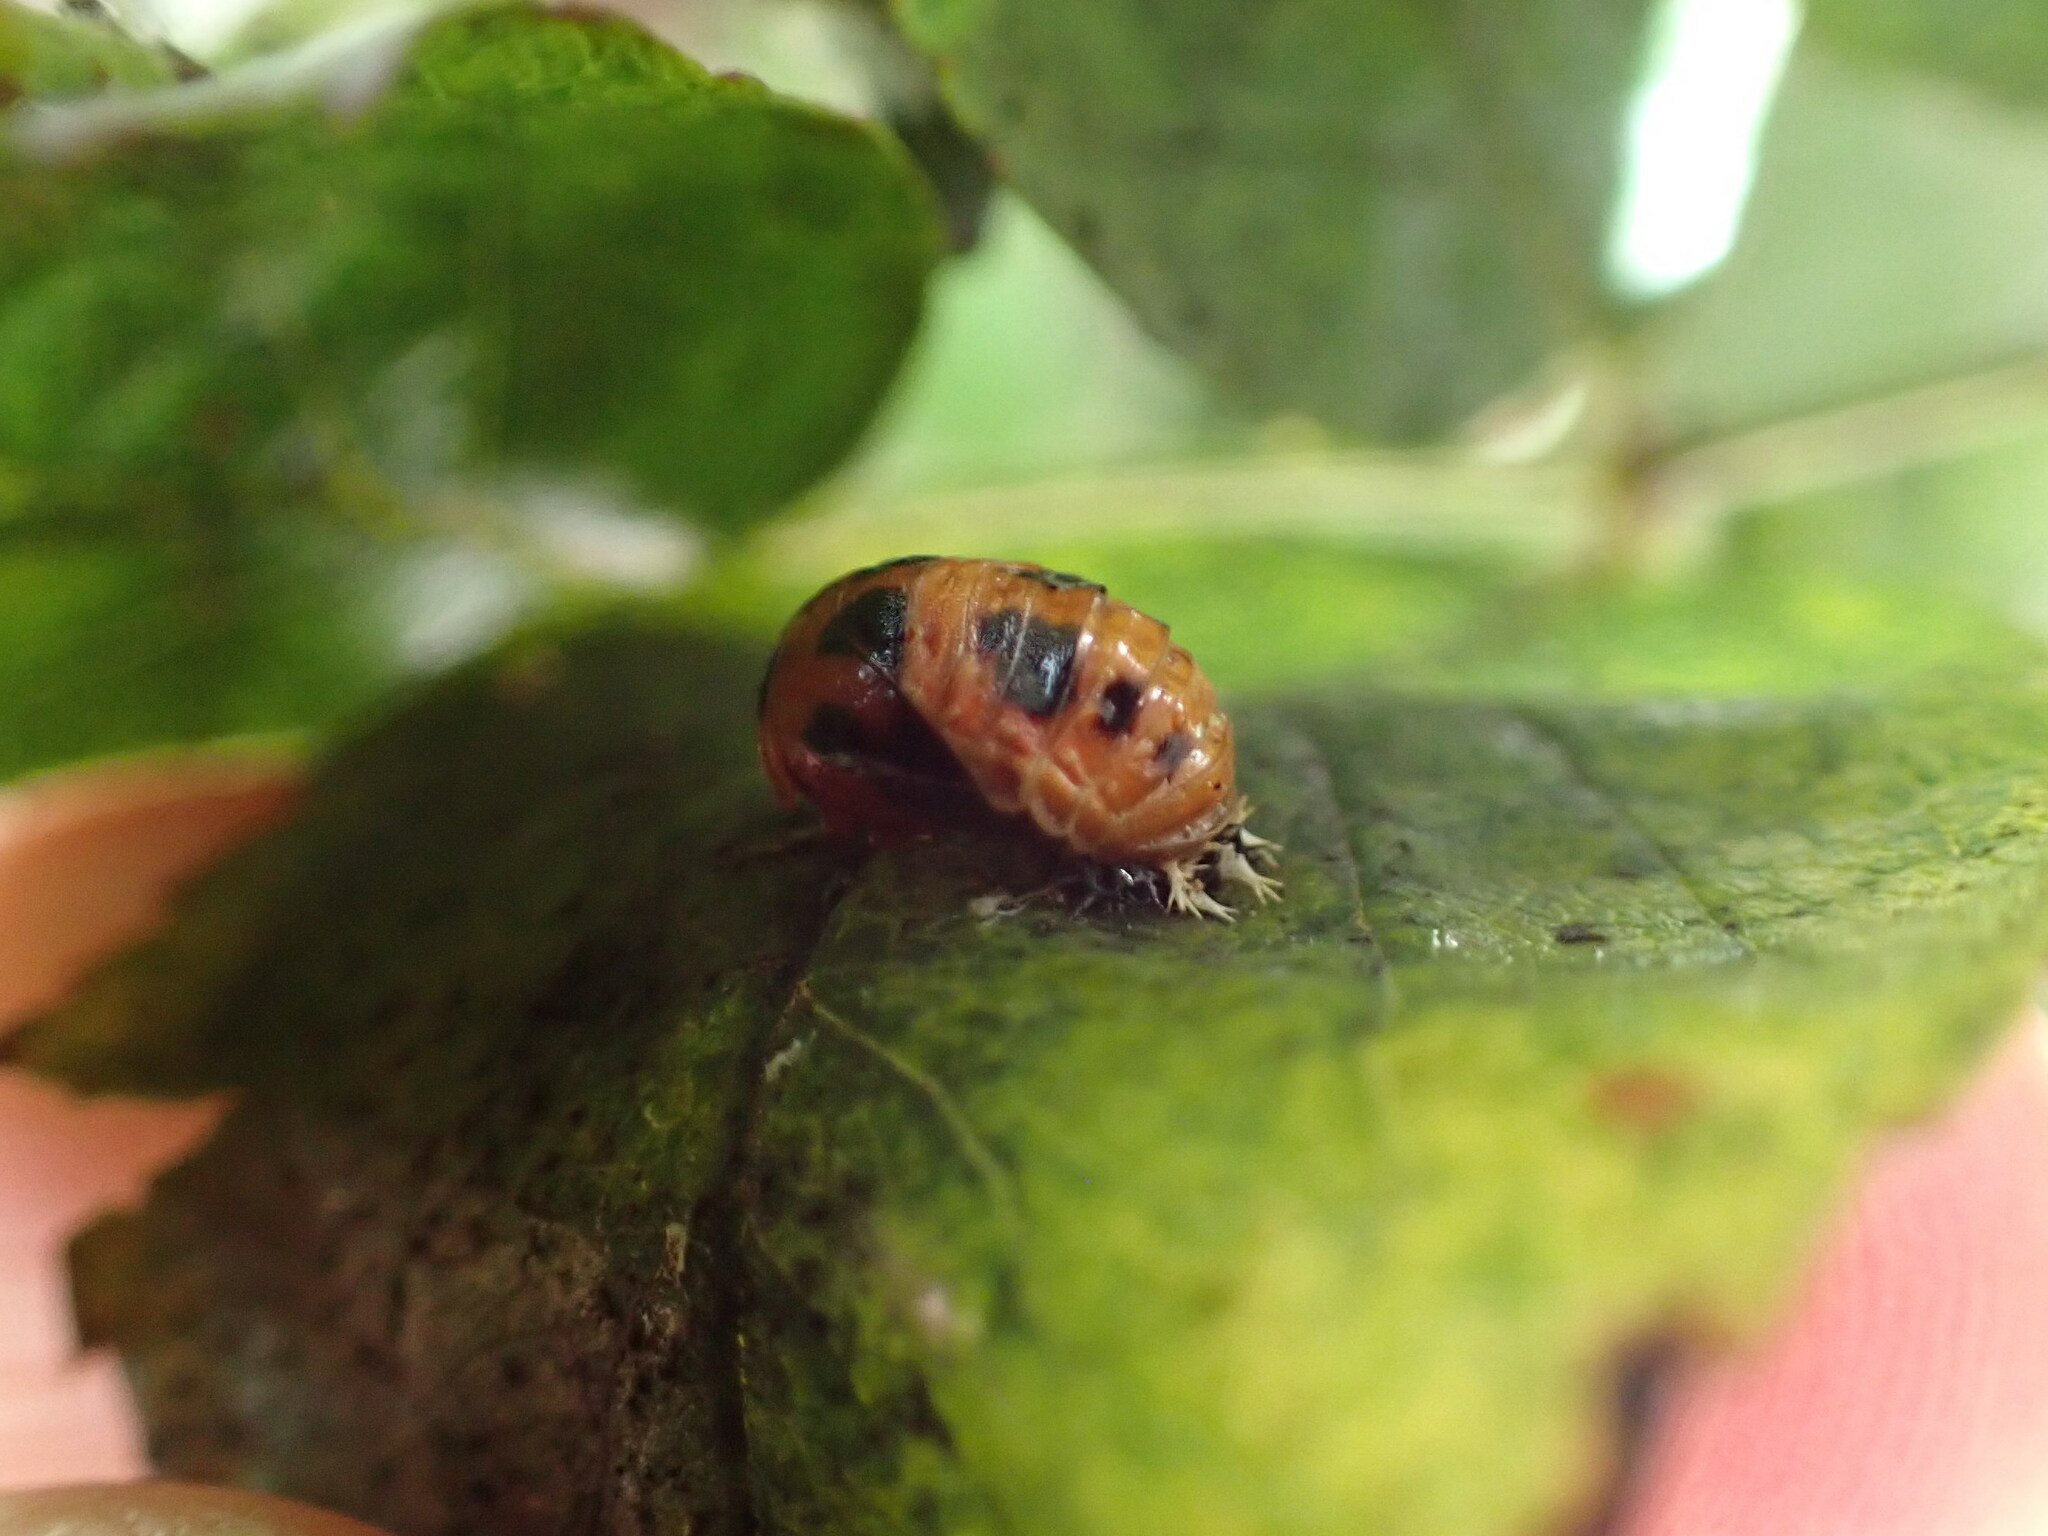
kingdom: Animalia
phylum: Arthropoda
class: Insecta
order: Coleoptera
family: Coccinellidae
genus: Harmonia
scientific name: Harmonia axyridis
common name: Harlequin ladybird
